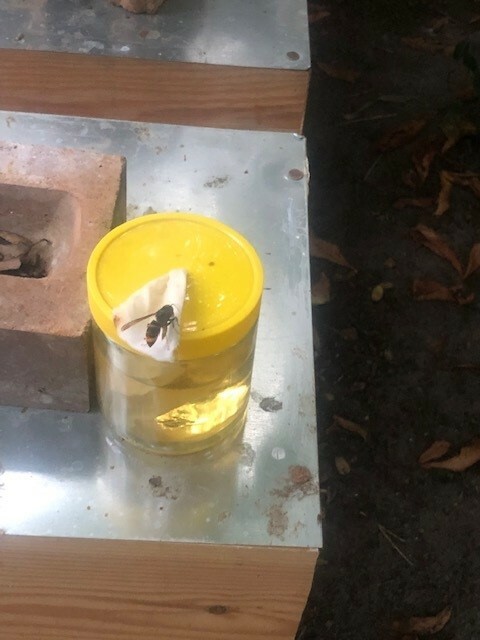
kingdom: Animalia
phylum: Arthropoda
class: Insecta
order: Hymenoptera
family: Vespidae
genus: Vespa
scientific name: Vespa velutina
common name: Asian hornet
